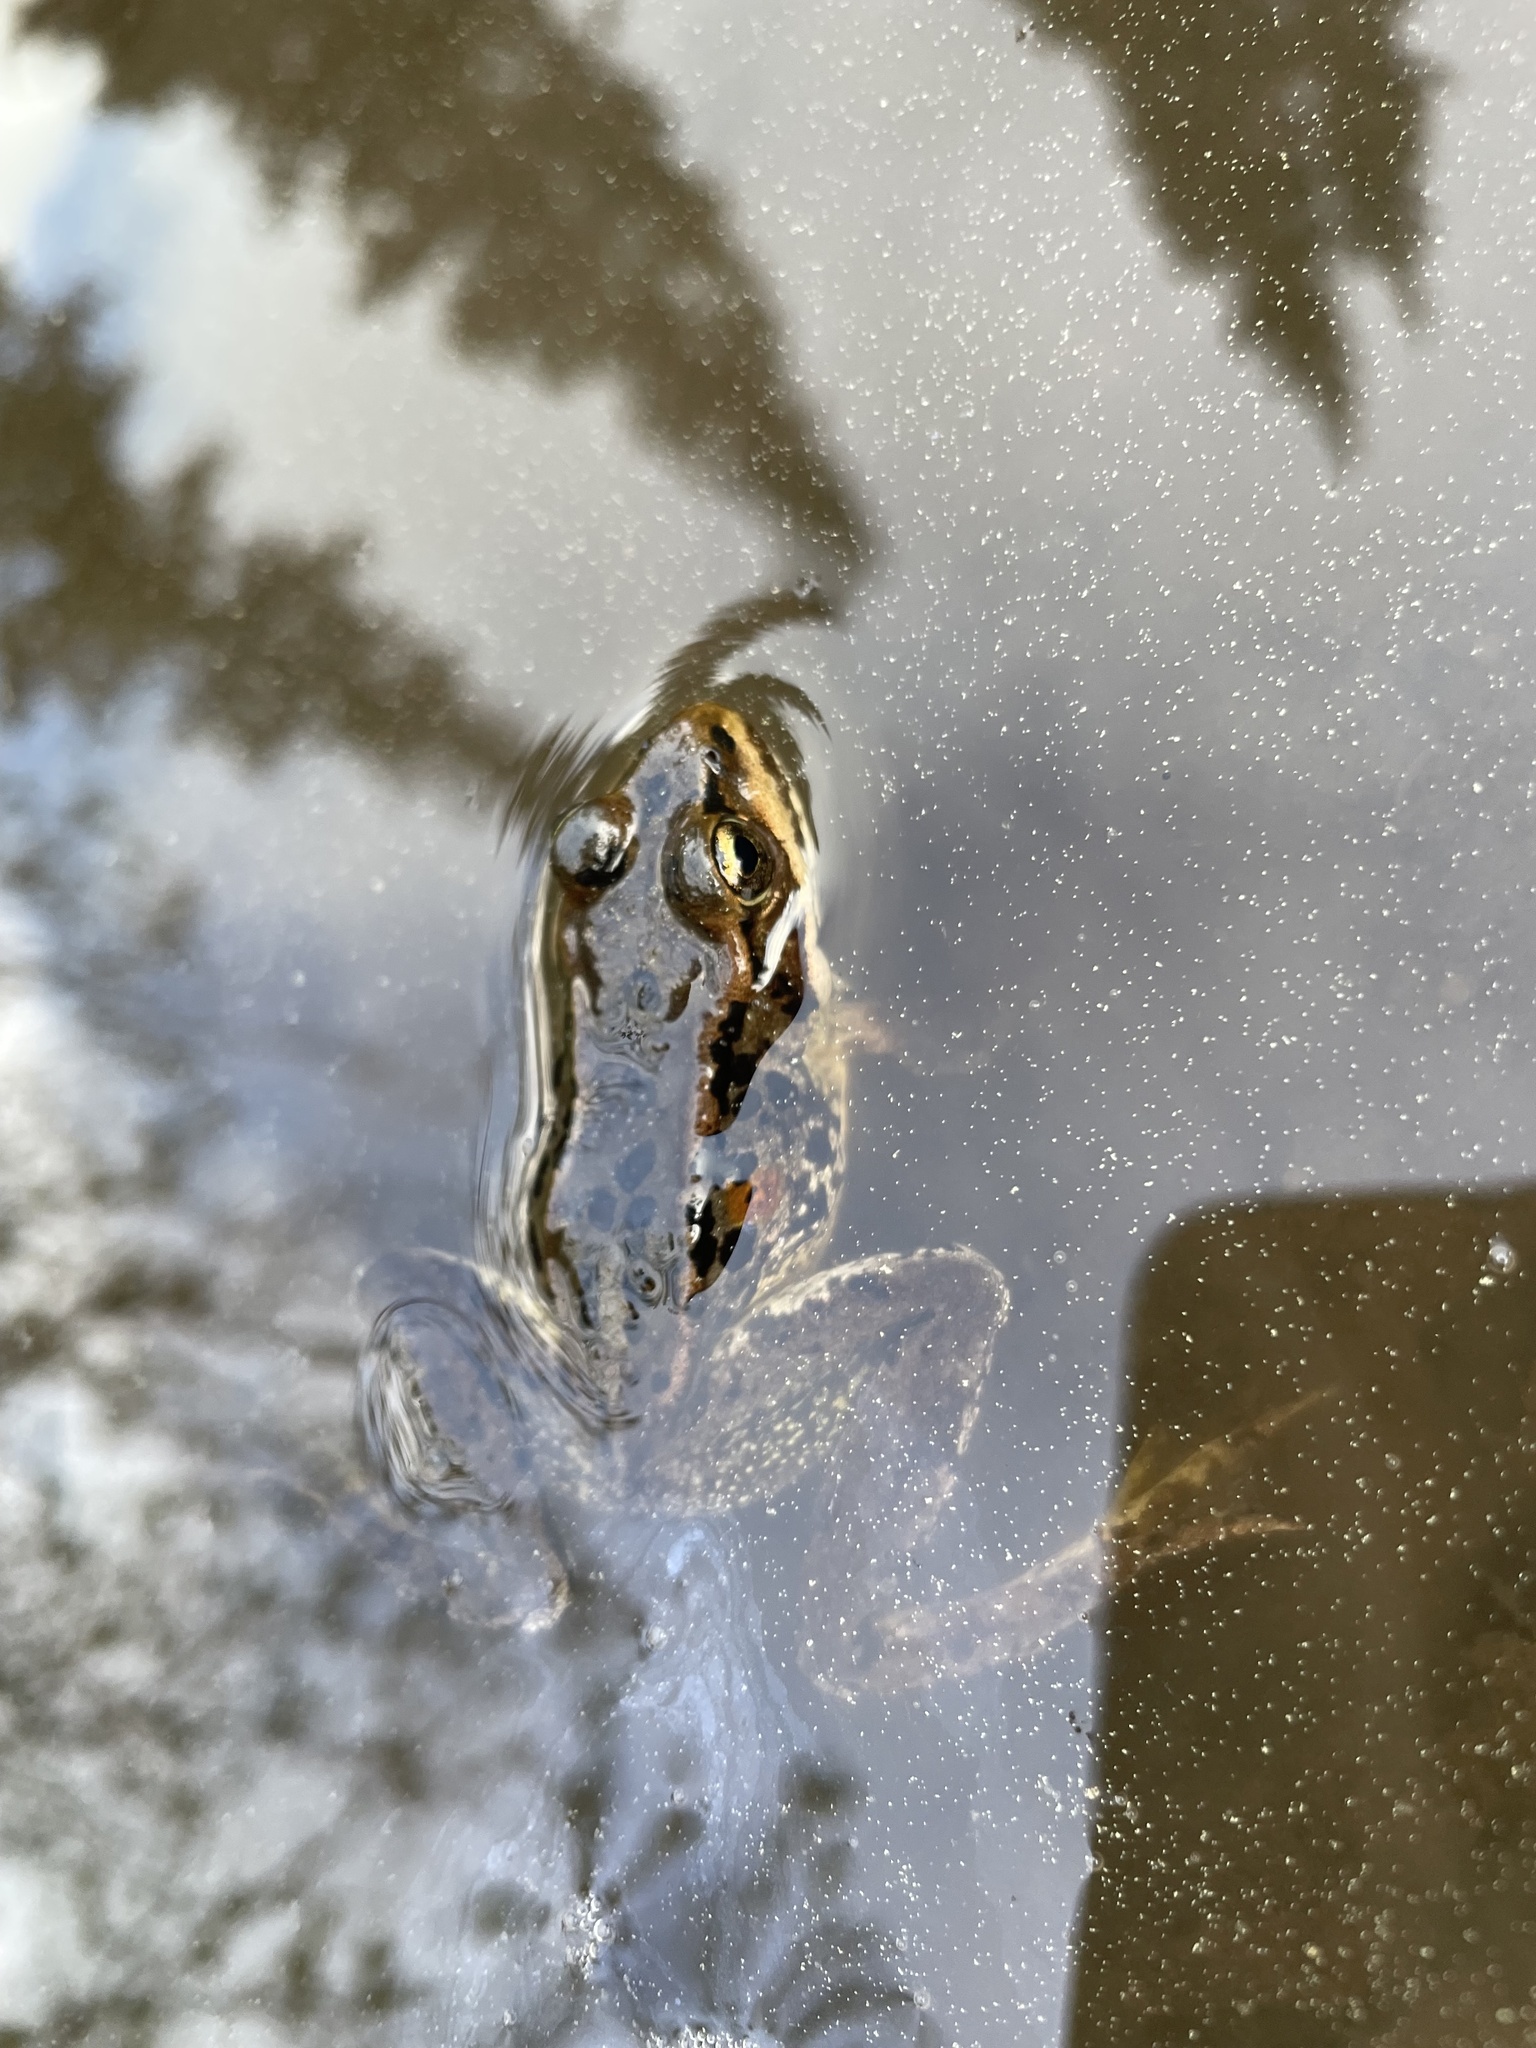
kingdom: Animalia
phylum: Chordata
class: Amphibia
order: Anura
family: Ranidae
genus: Rana
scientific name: Rana cascadae
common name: Cascades frog
